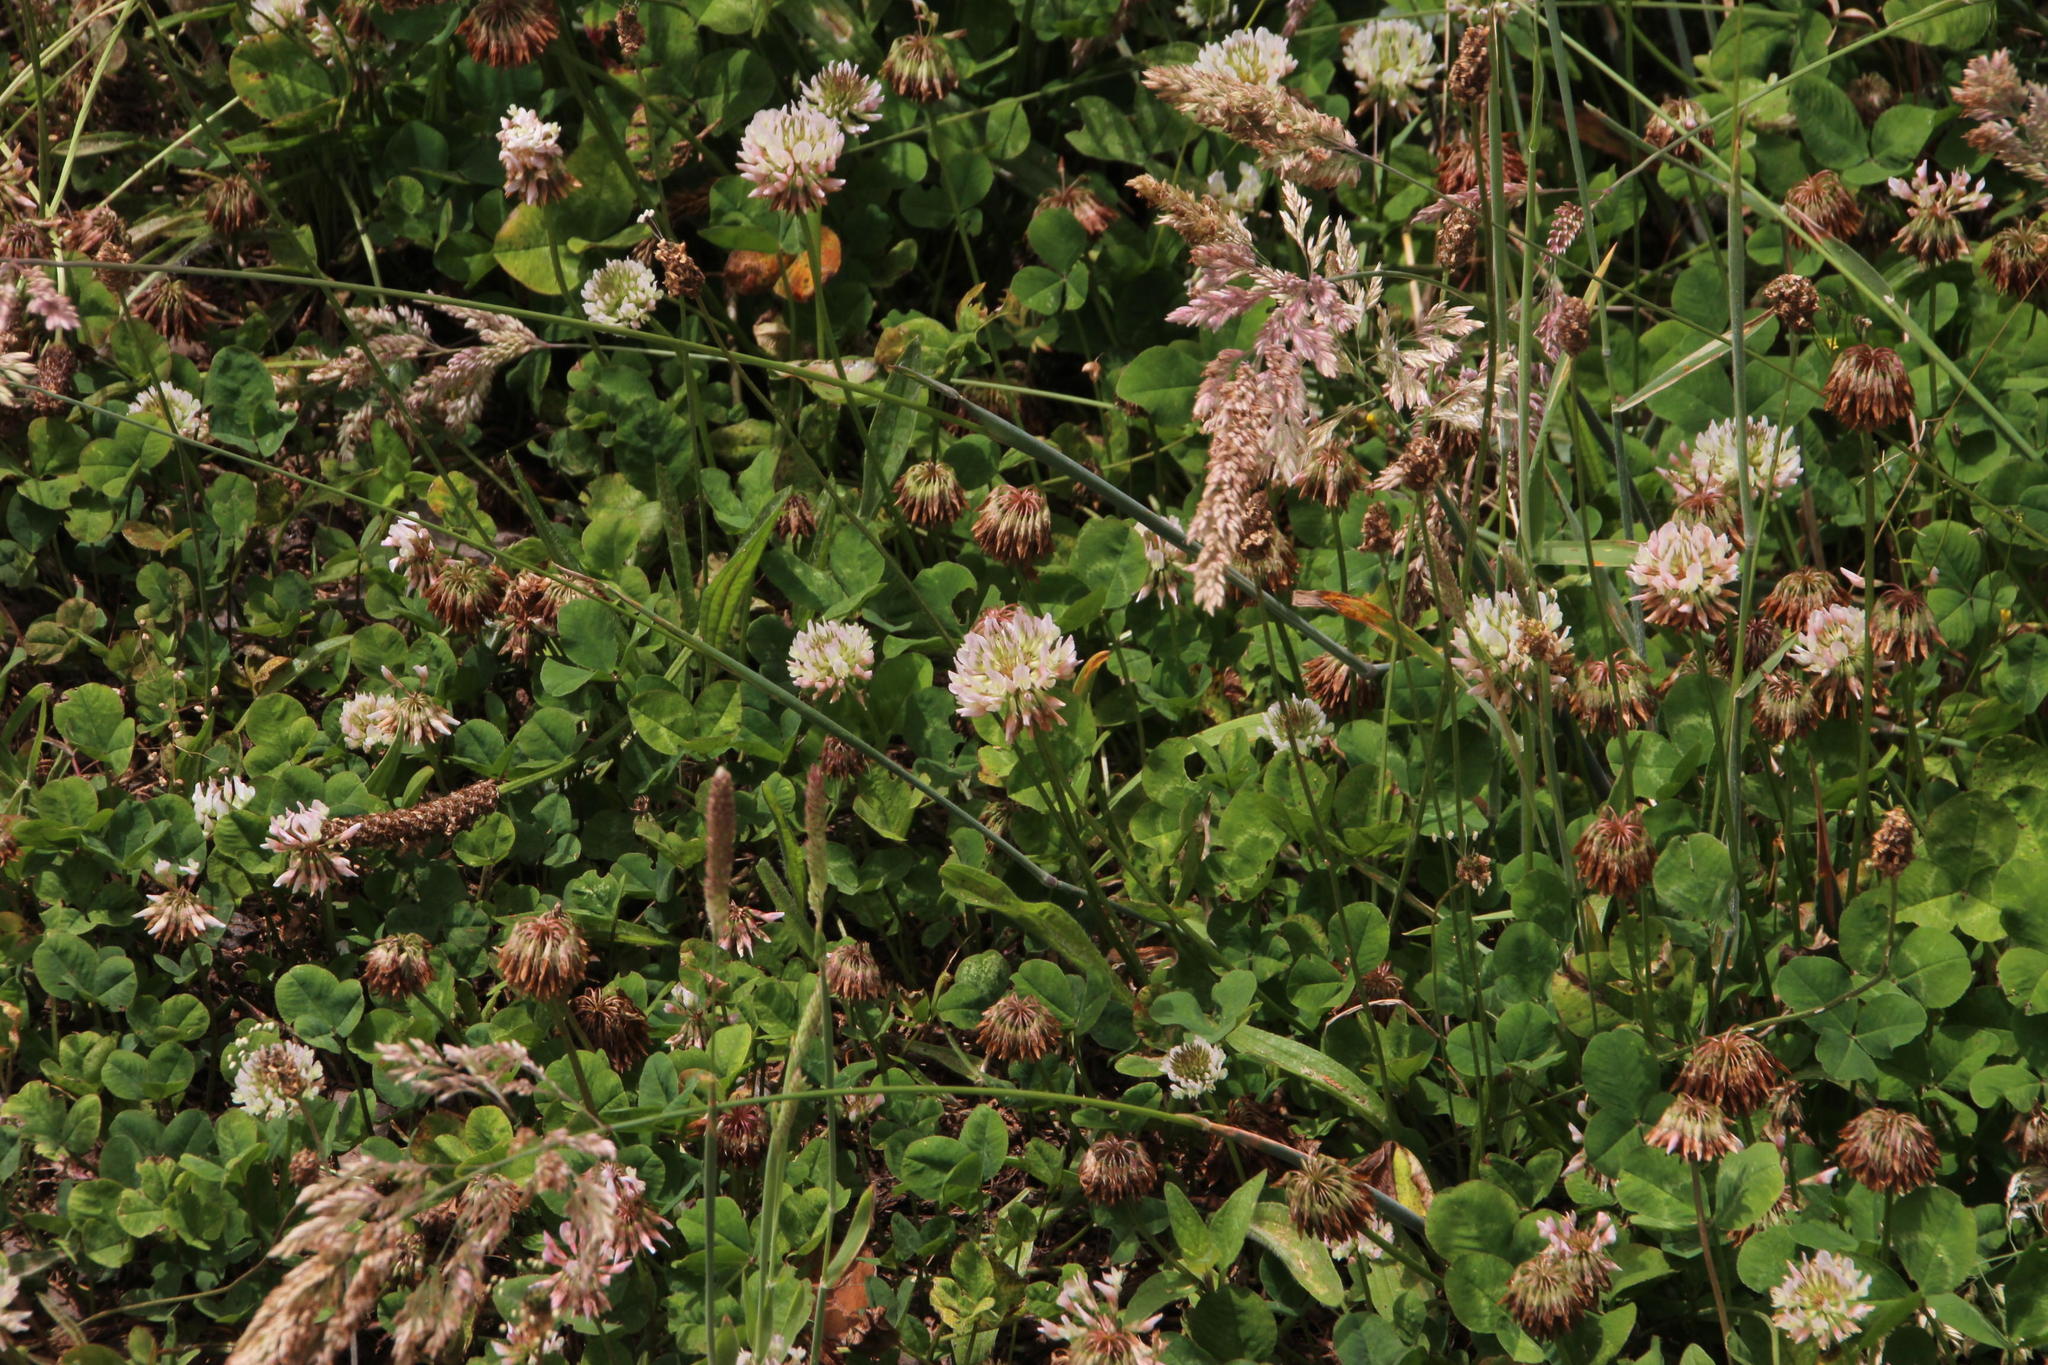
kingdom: Plantae
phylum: Tracheophyta
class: Magnoliopsida
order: Fabales
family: Fabaceae
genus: Trifolium
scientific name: Trifolium repens
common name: White clover
